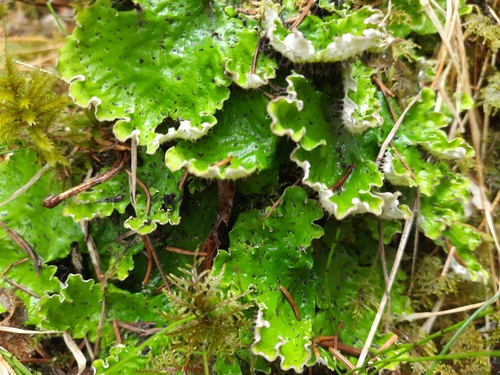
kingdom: Fungi
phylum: Ascomycota
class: Lecanoromycetes
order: Peltigerales
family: Peltigeraceae
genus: Peltigera
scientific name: Peltigera aphthosa
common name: Common freckle pelt lichen
